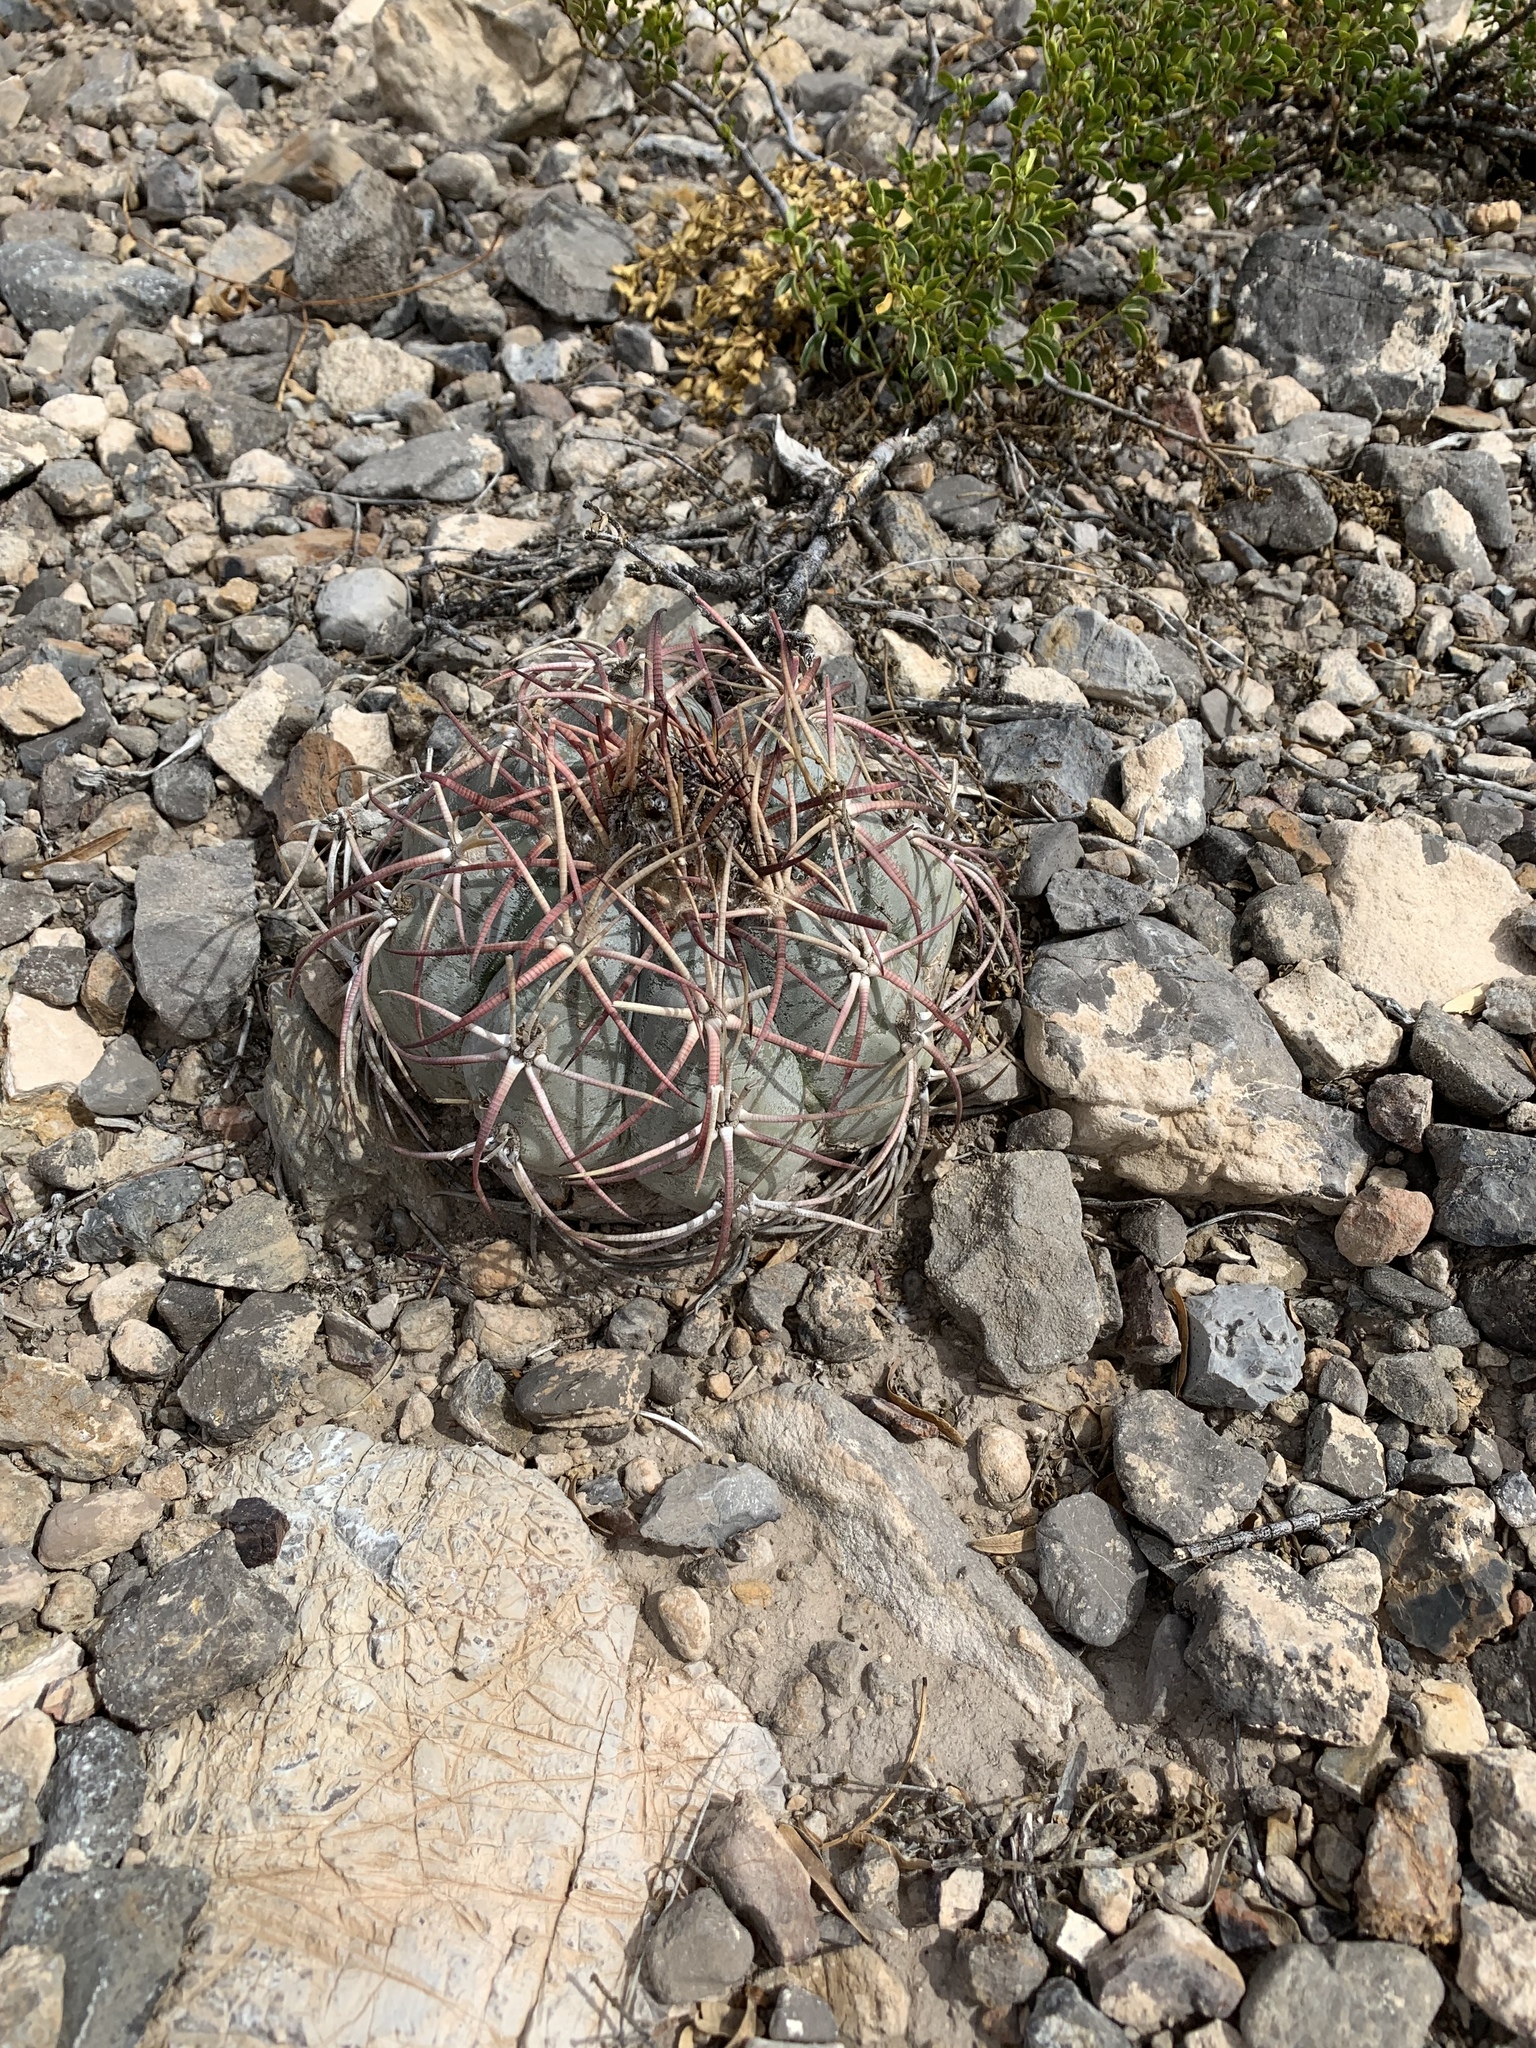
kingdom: Plantae
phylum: Tracheophyta
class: Magnoliopsida
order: Caryophyllales
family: Cactaceae
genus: Echinocactus
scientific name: Echinocactus horizonthalonius
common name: Devilshead
